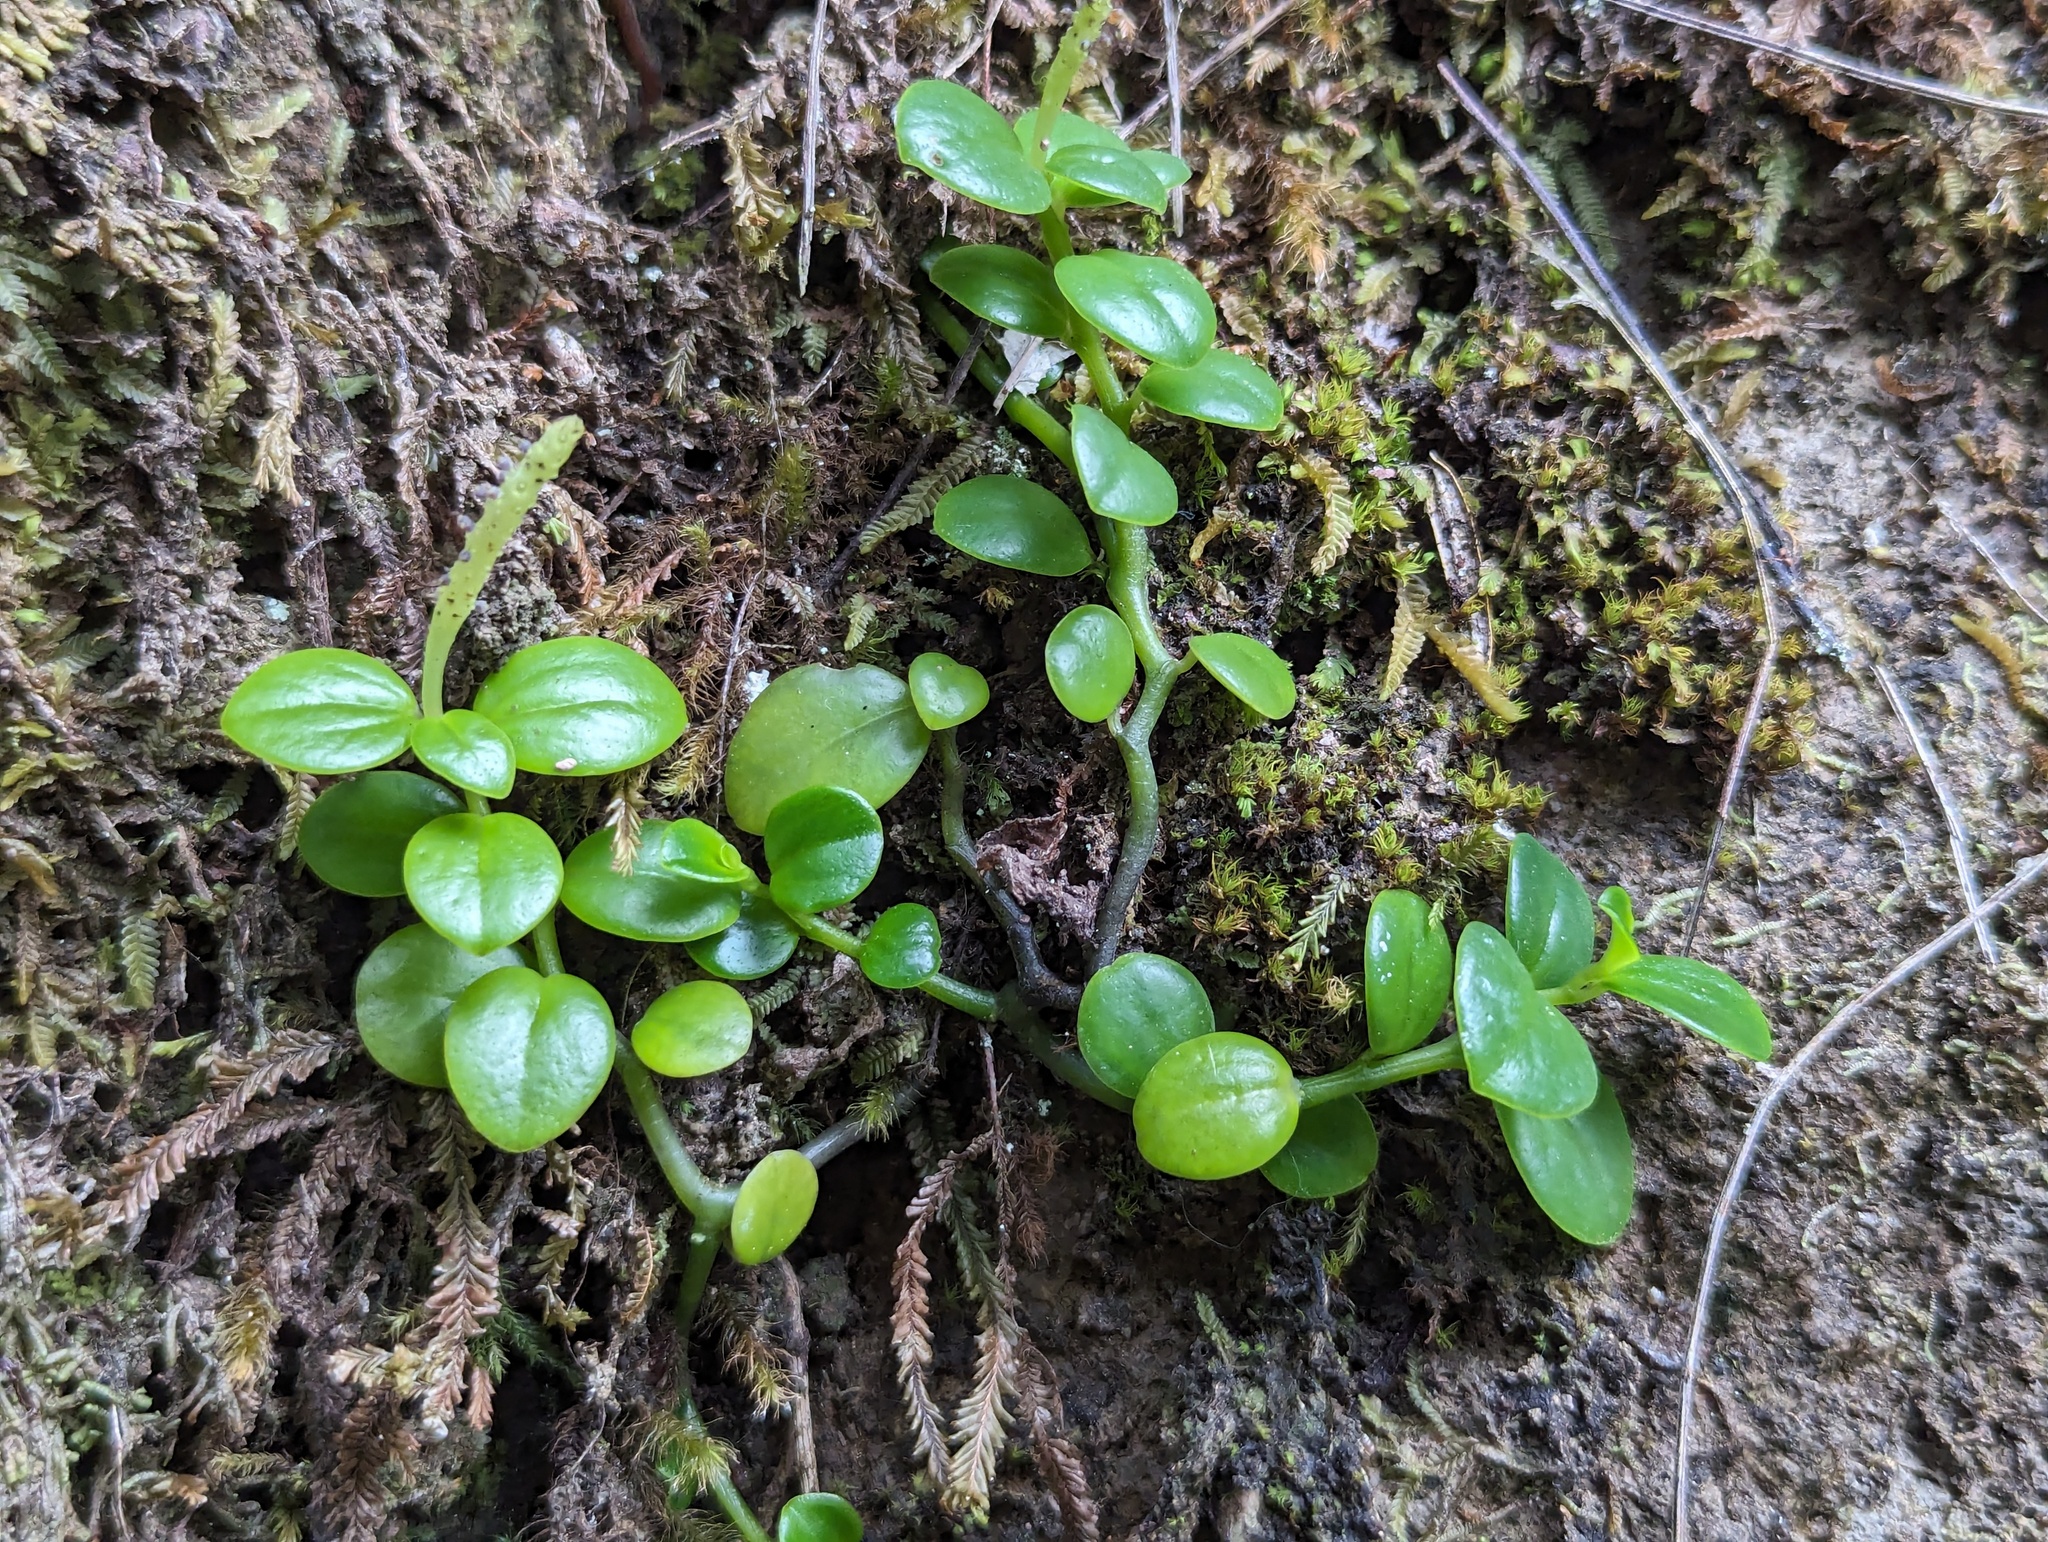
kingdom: Plantae
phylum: Tracheophyta
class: Magnoliopsida
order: Piperales
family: Piperaceae
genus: Peperomia
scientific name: Peperomia urvilleana
